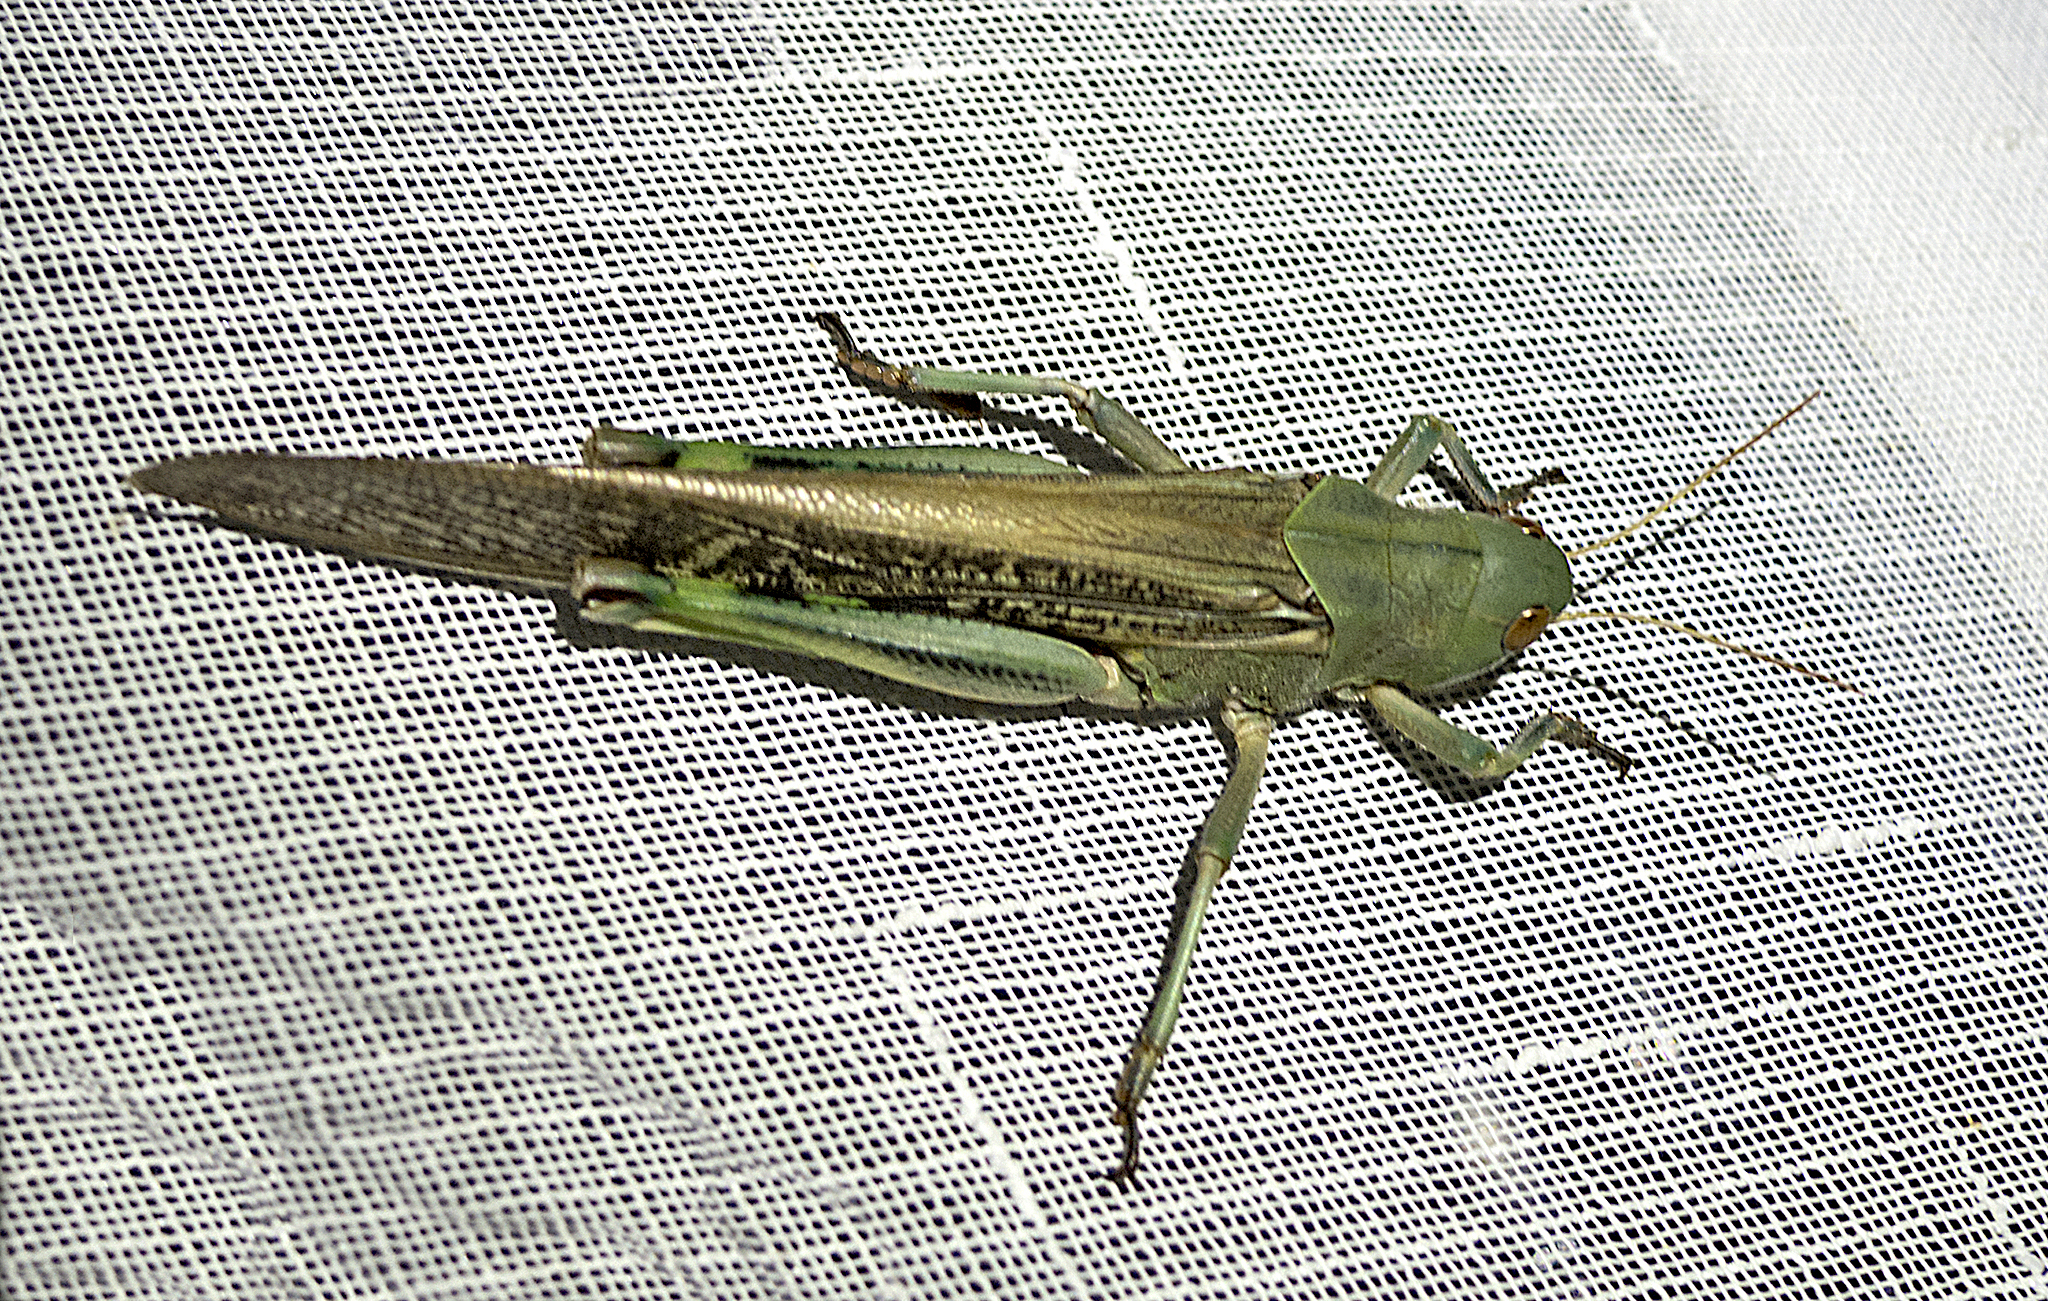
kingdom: Animalia
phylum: Arthropoda
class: Insecta
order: Orthoptera
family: Acrididae
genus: Locusta
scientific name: Locusta migratoria
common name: Migratory locust
